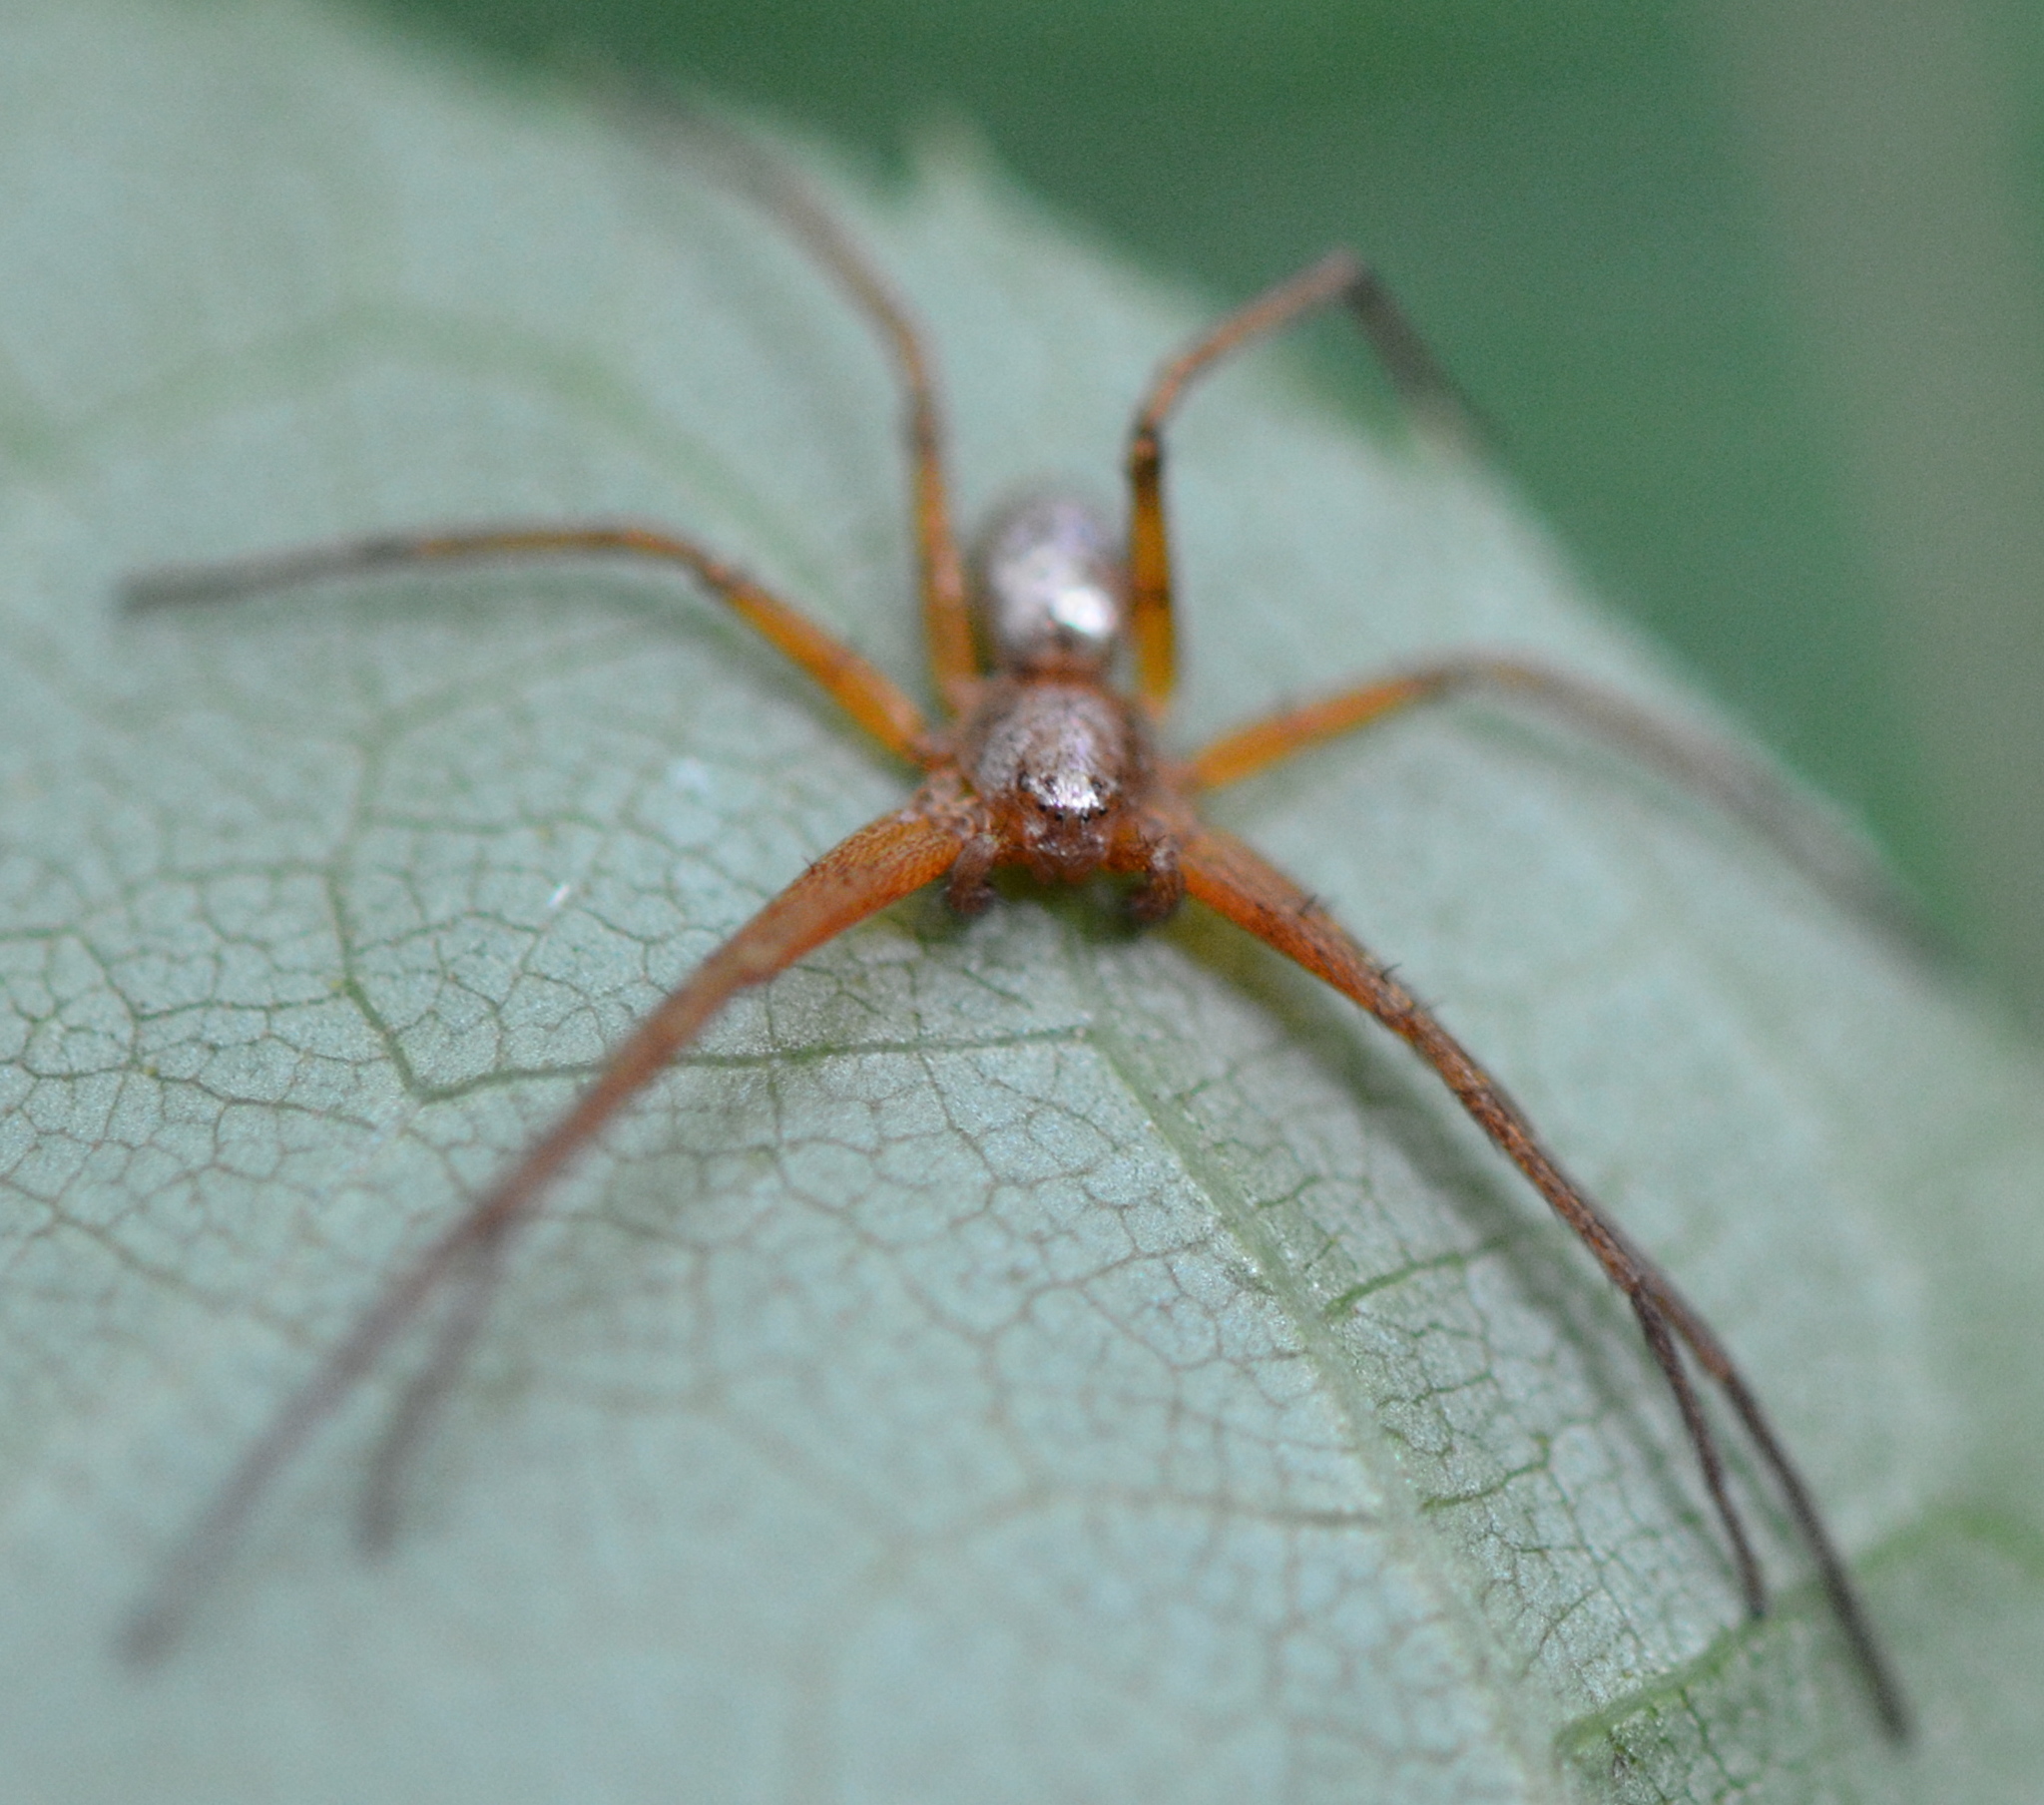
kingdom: Animalia
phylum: Arthropoda
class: Arachnida
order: Araneae
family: Philodromidae
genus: Philodromus
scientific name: Philodromus marxi
